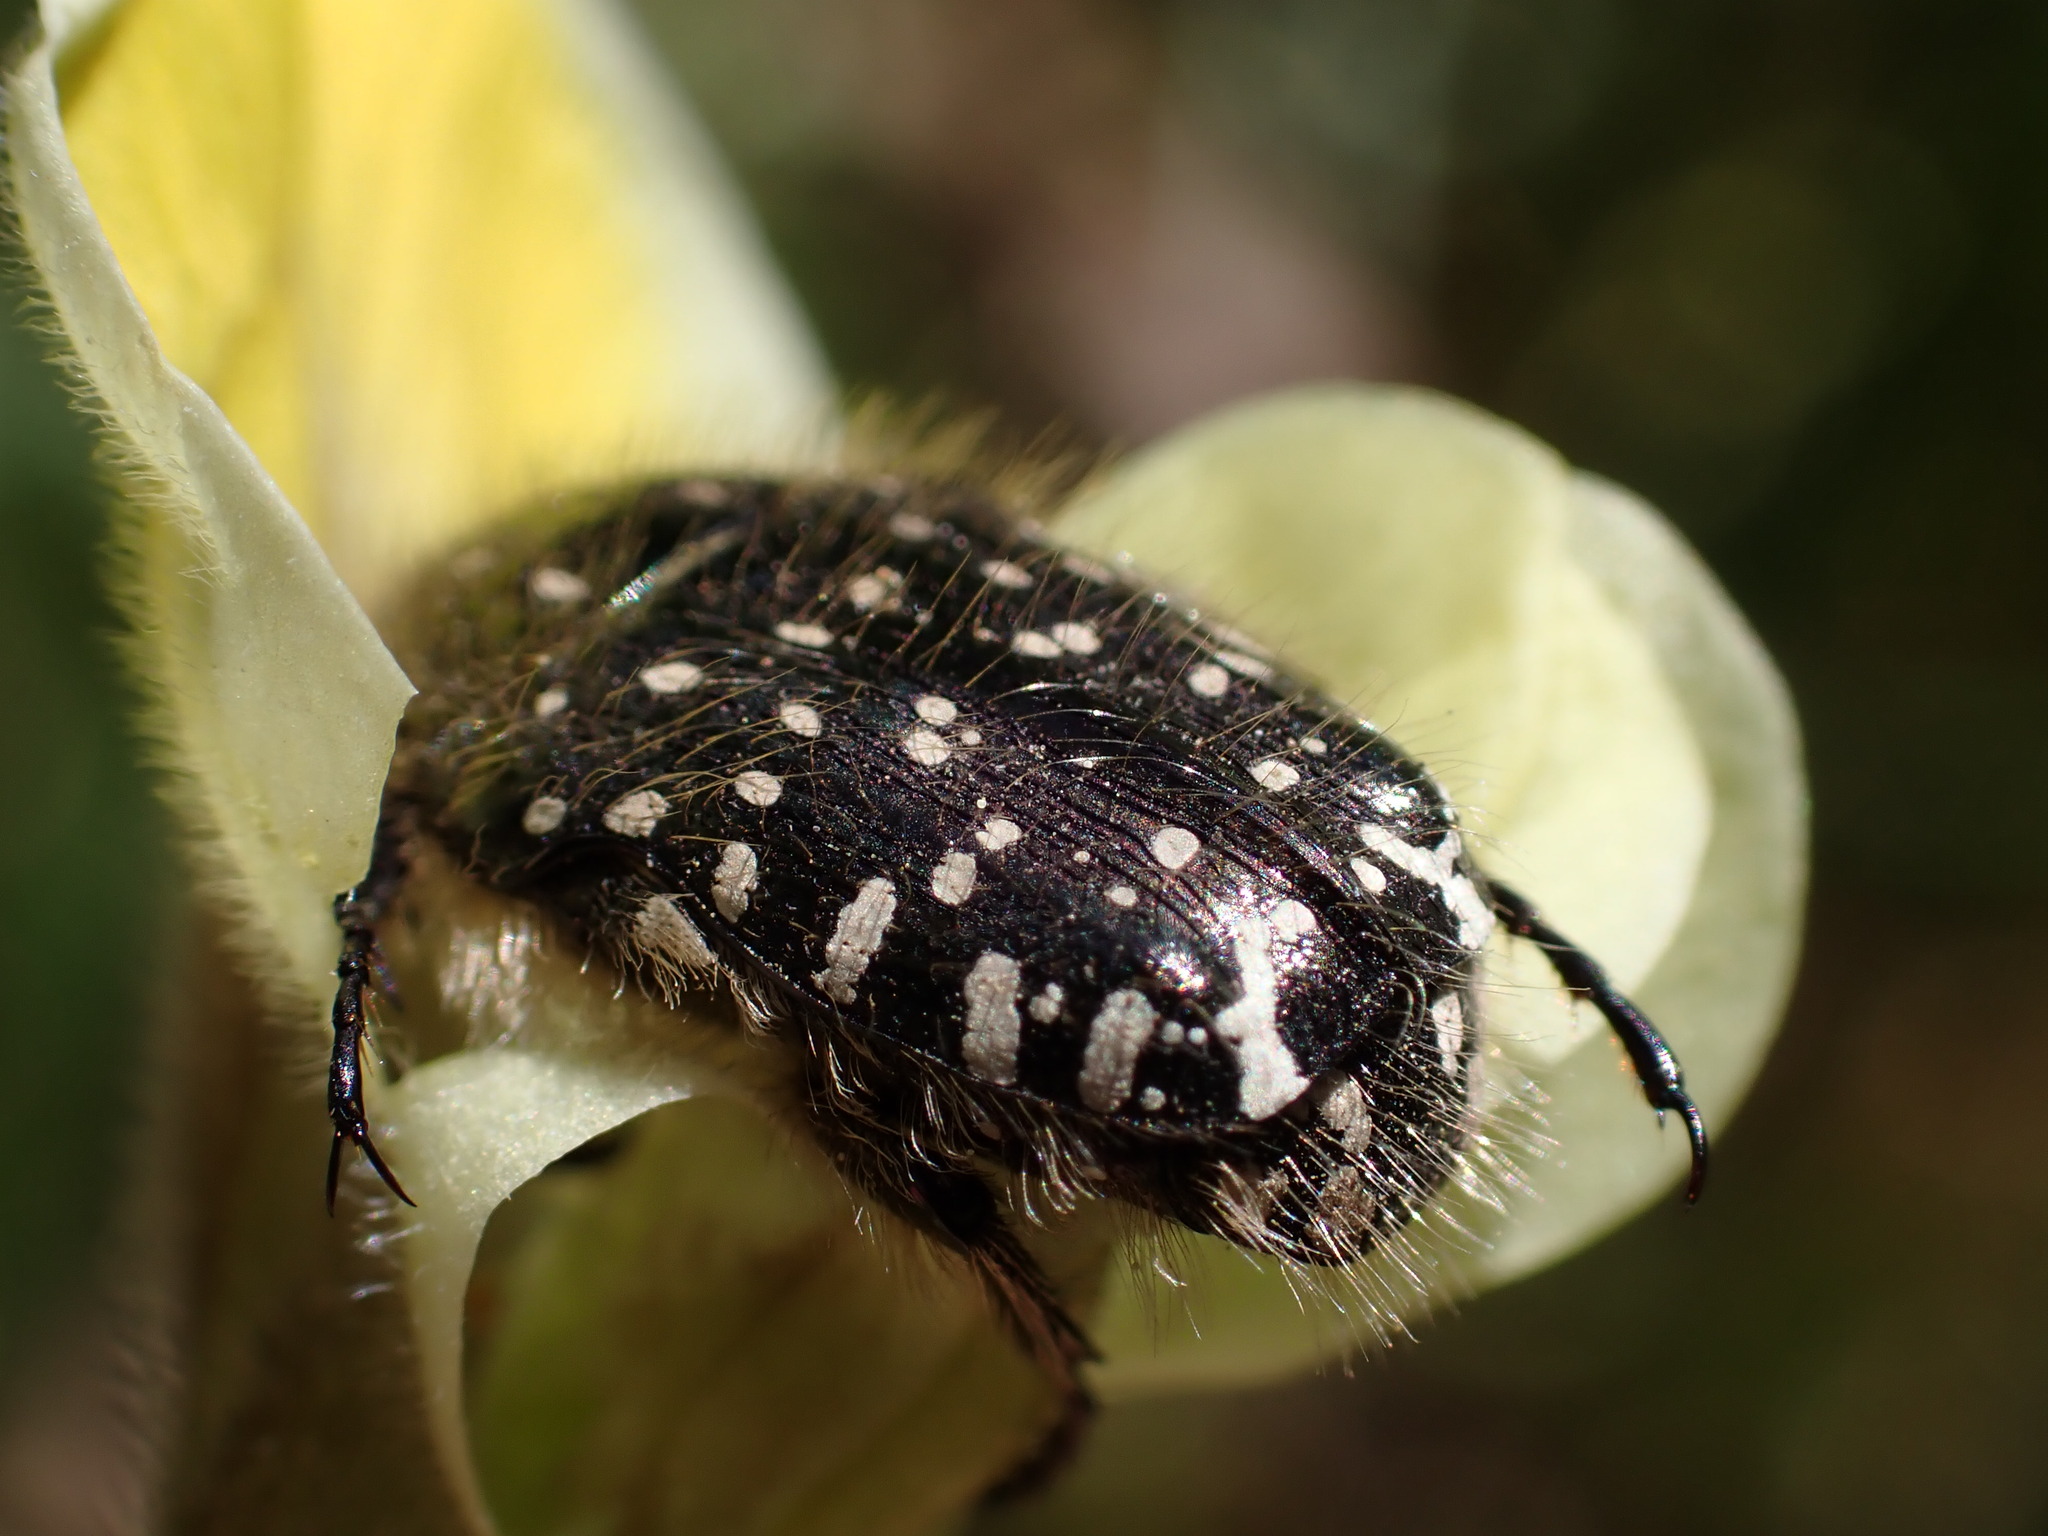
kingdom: Animalia
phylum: Arthropoda
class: Insecta
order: Coleoptera
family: Scarabaeidae
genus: Oxythyrea
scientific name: Oxythyrea funesta
